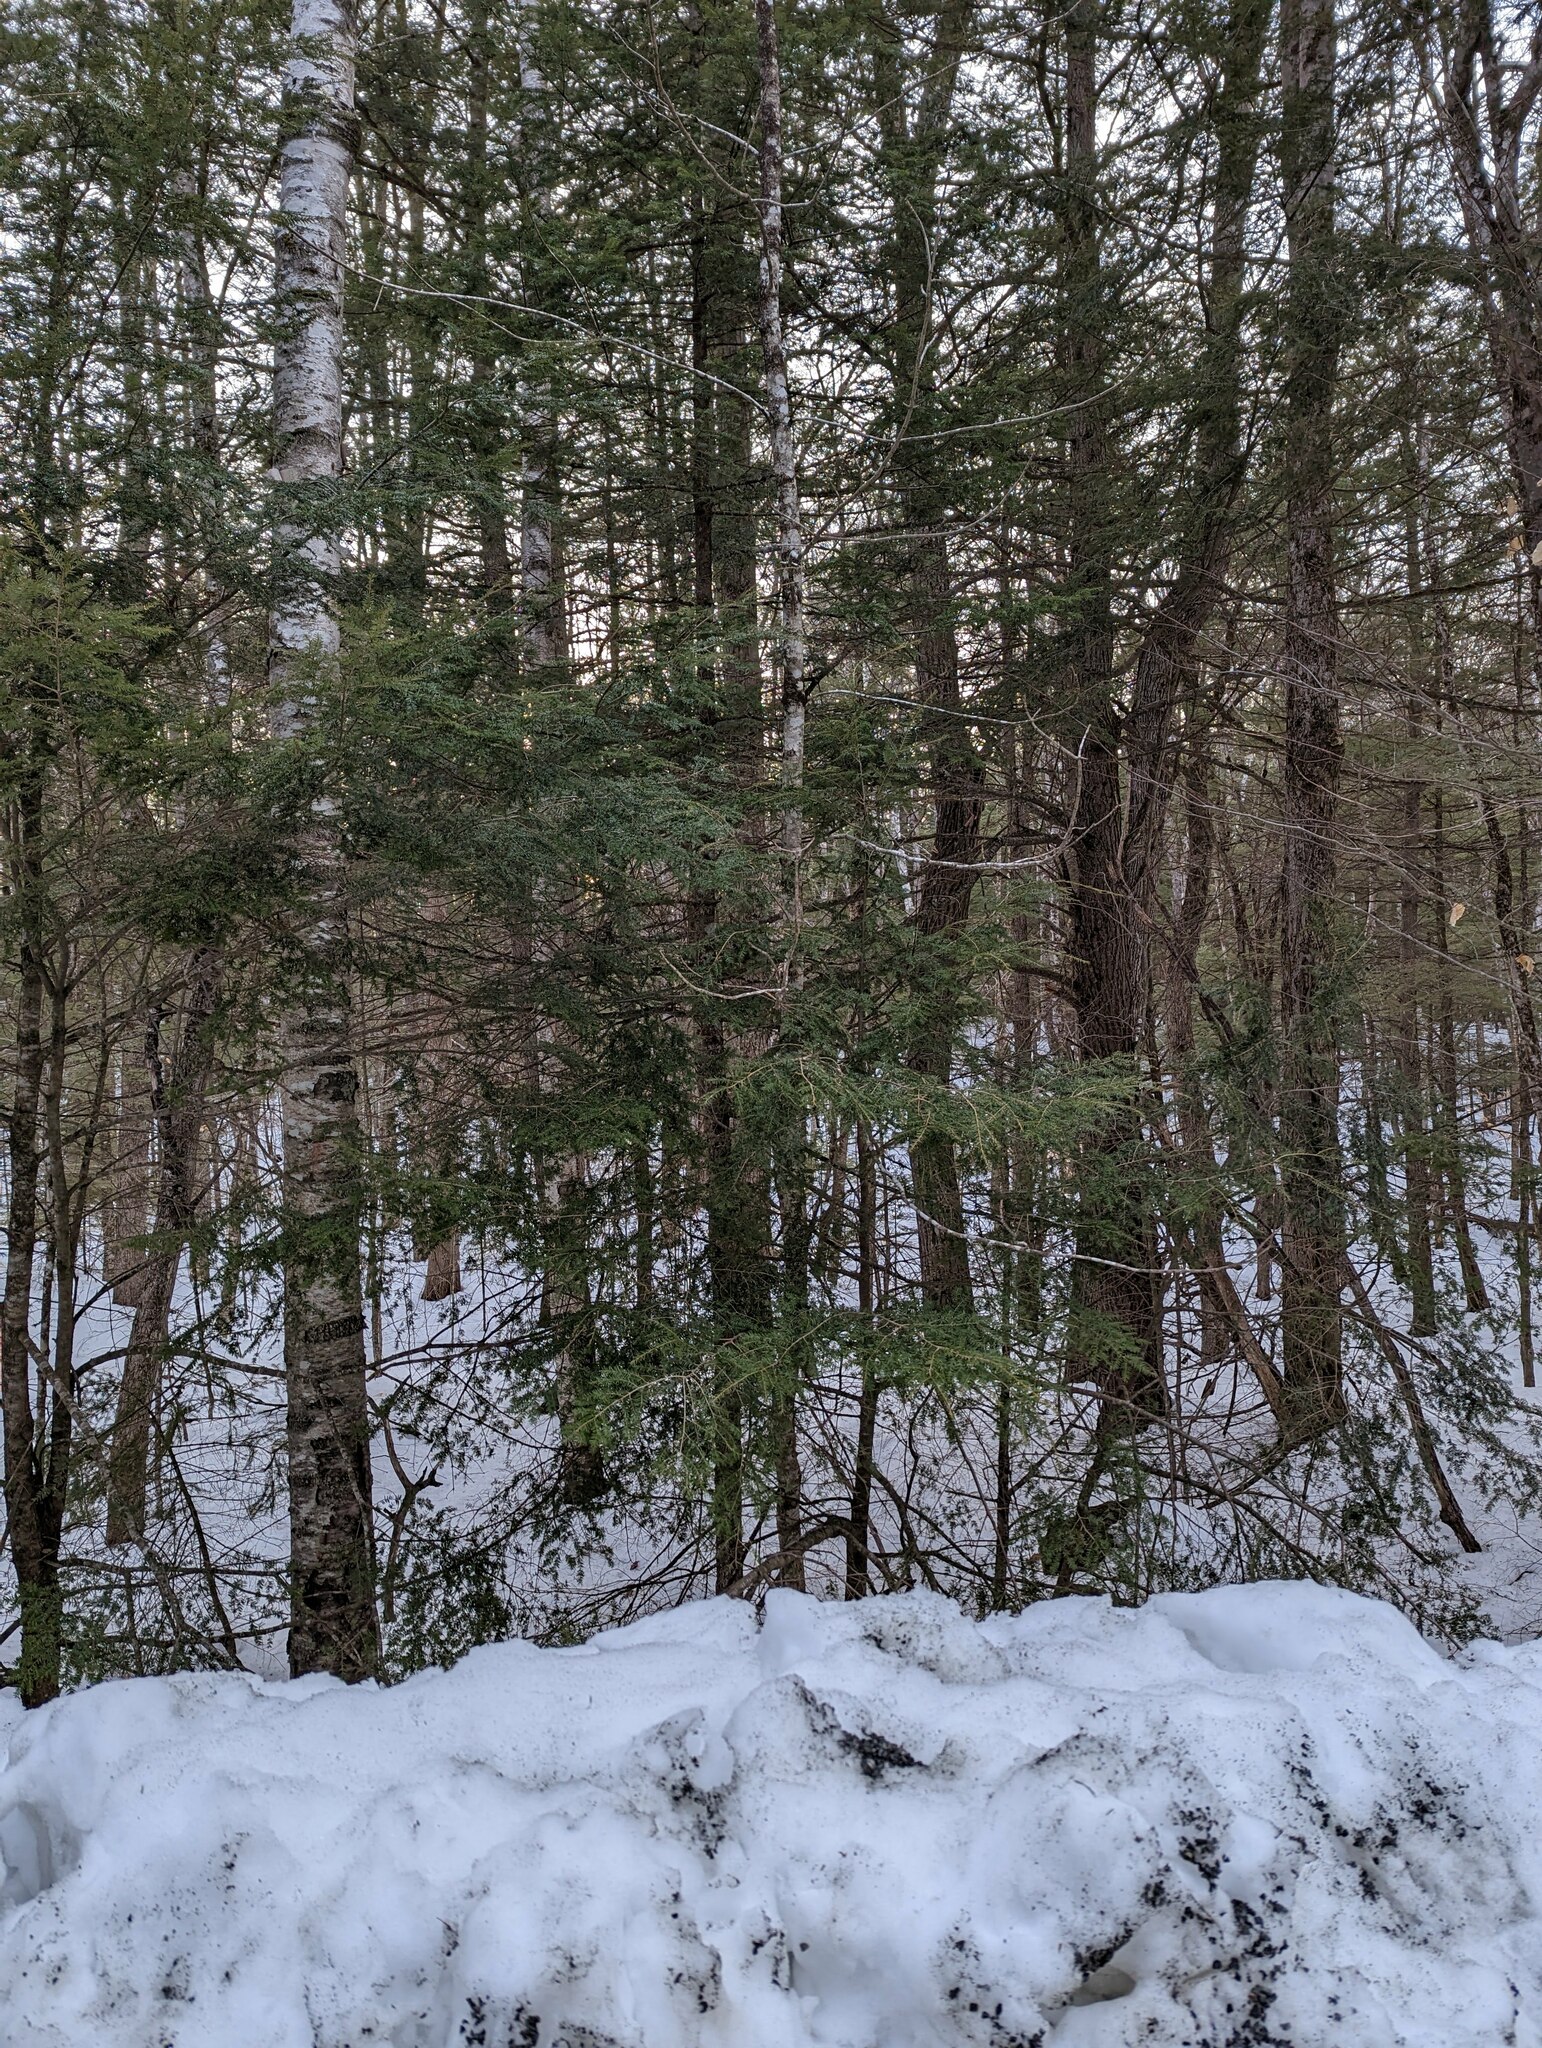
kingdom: Plantae
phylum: Tracheophyta
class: Pinopsida
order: Pinales
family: Pinaceae
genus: Tsuga
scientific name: Tsuga canadensis
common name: Eastern hemlock
